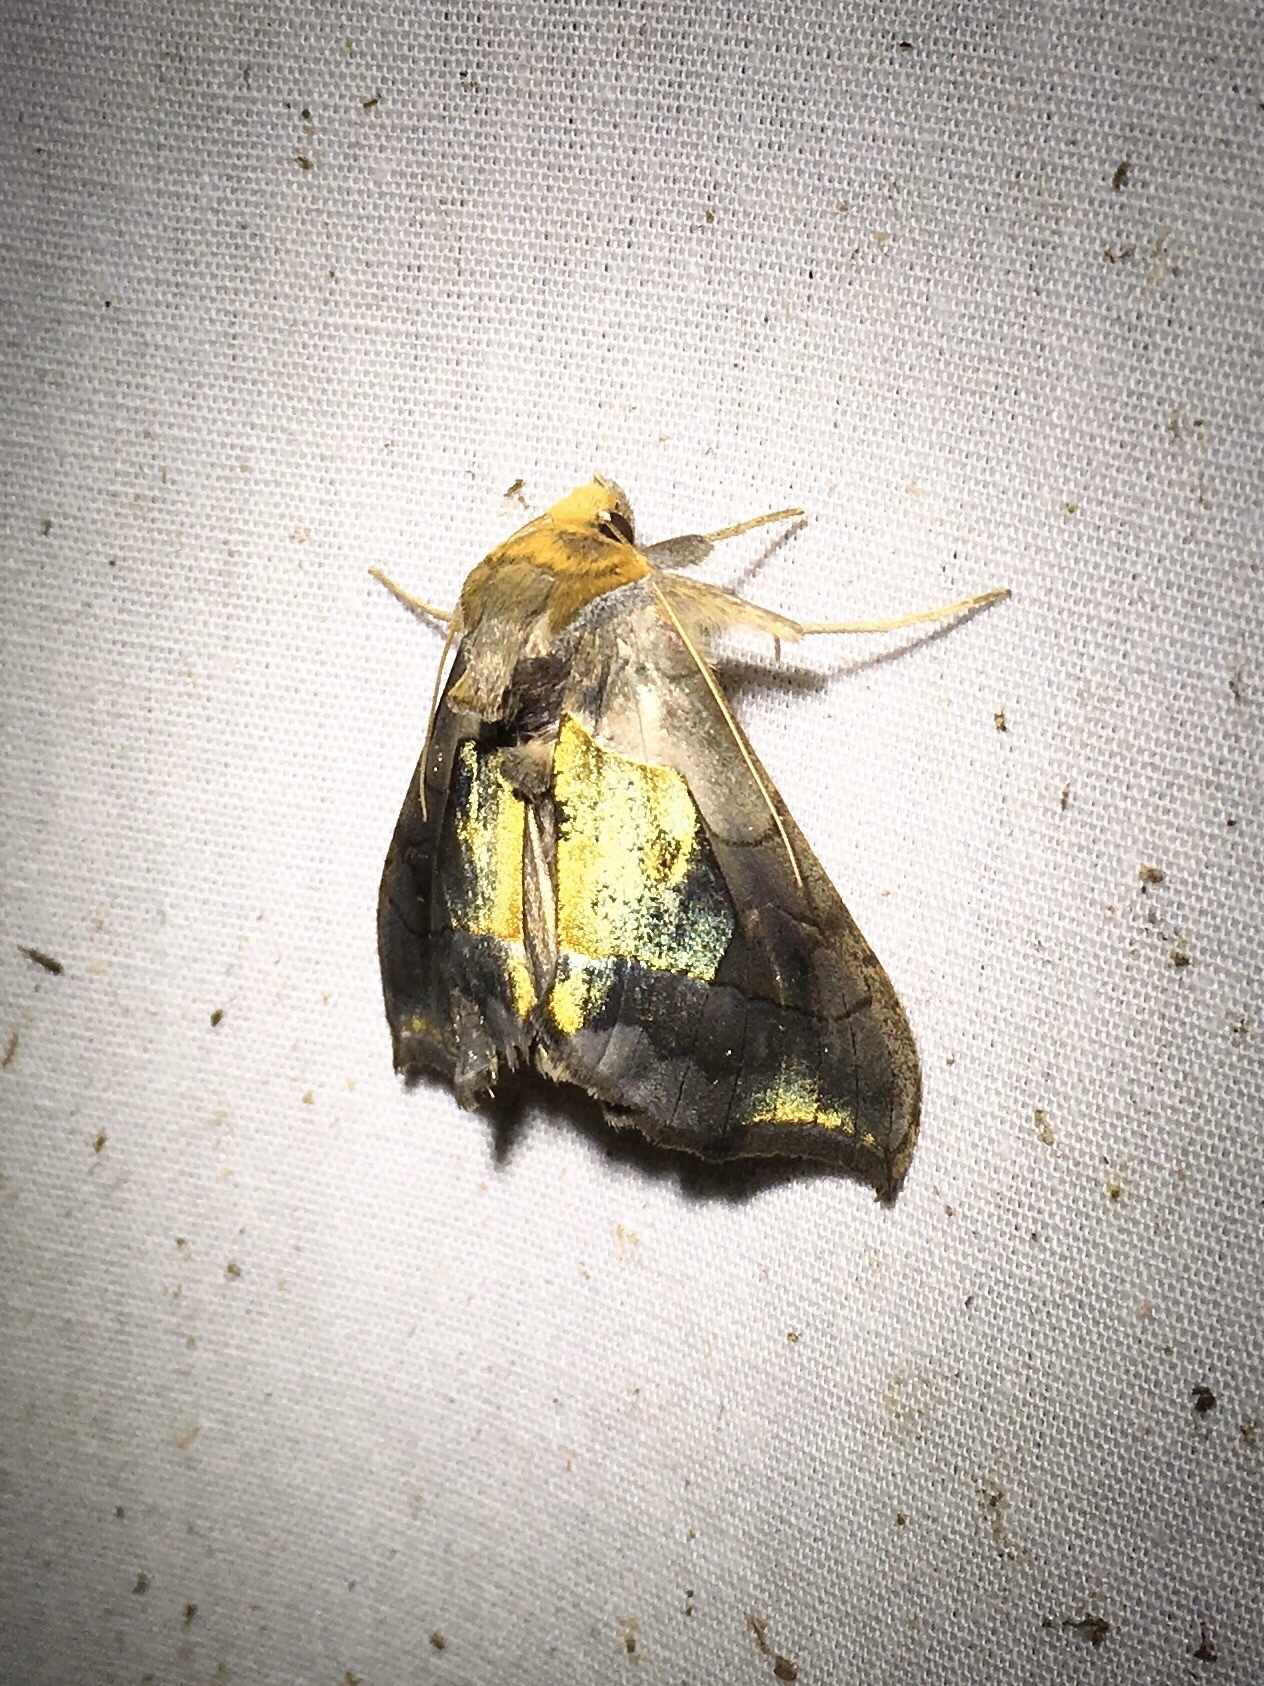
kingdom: Animalia
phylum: Arthropoda
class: Insecta
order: Lepidoptera
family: Noctuidae
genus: Diachrysia
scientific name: Diachrysia balluca
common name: Green-patched looper moth
